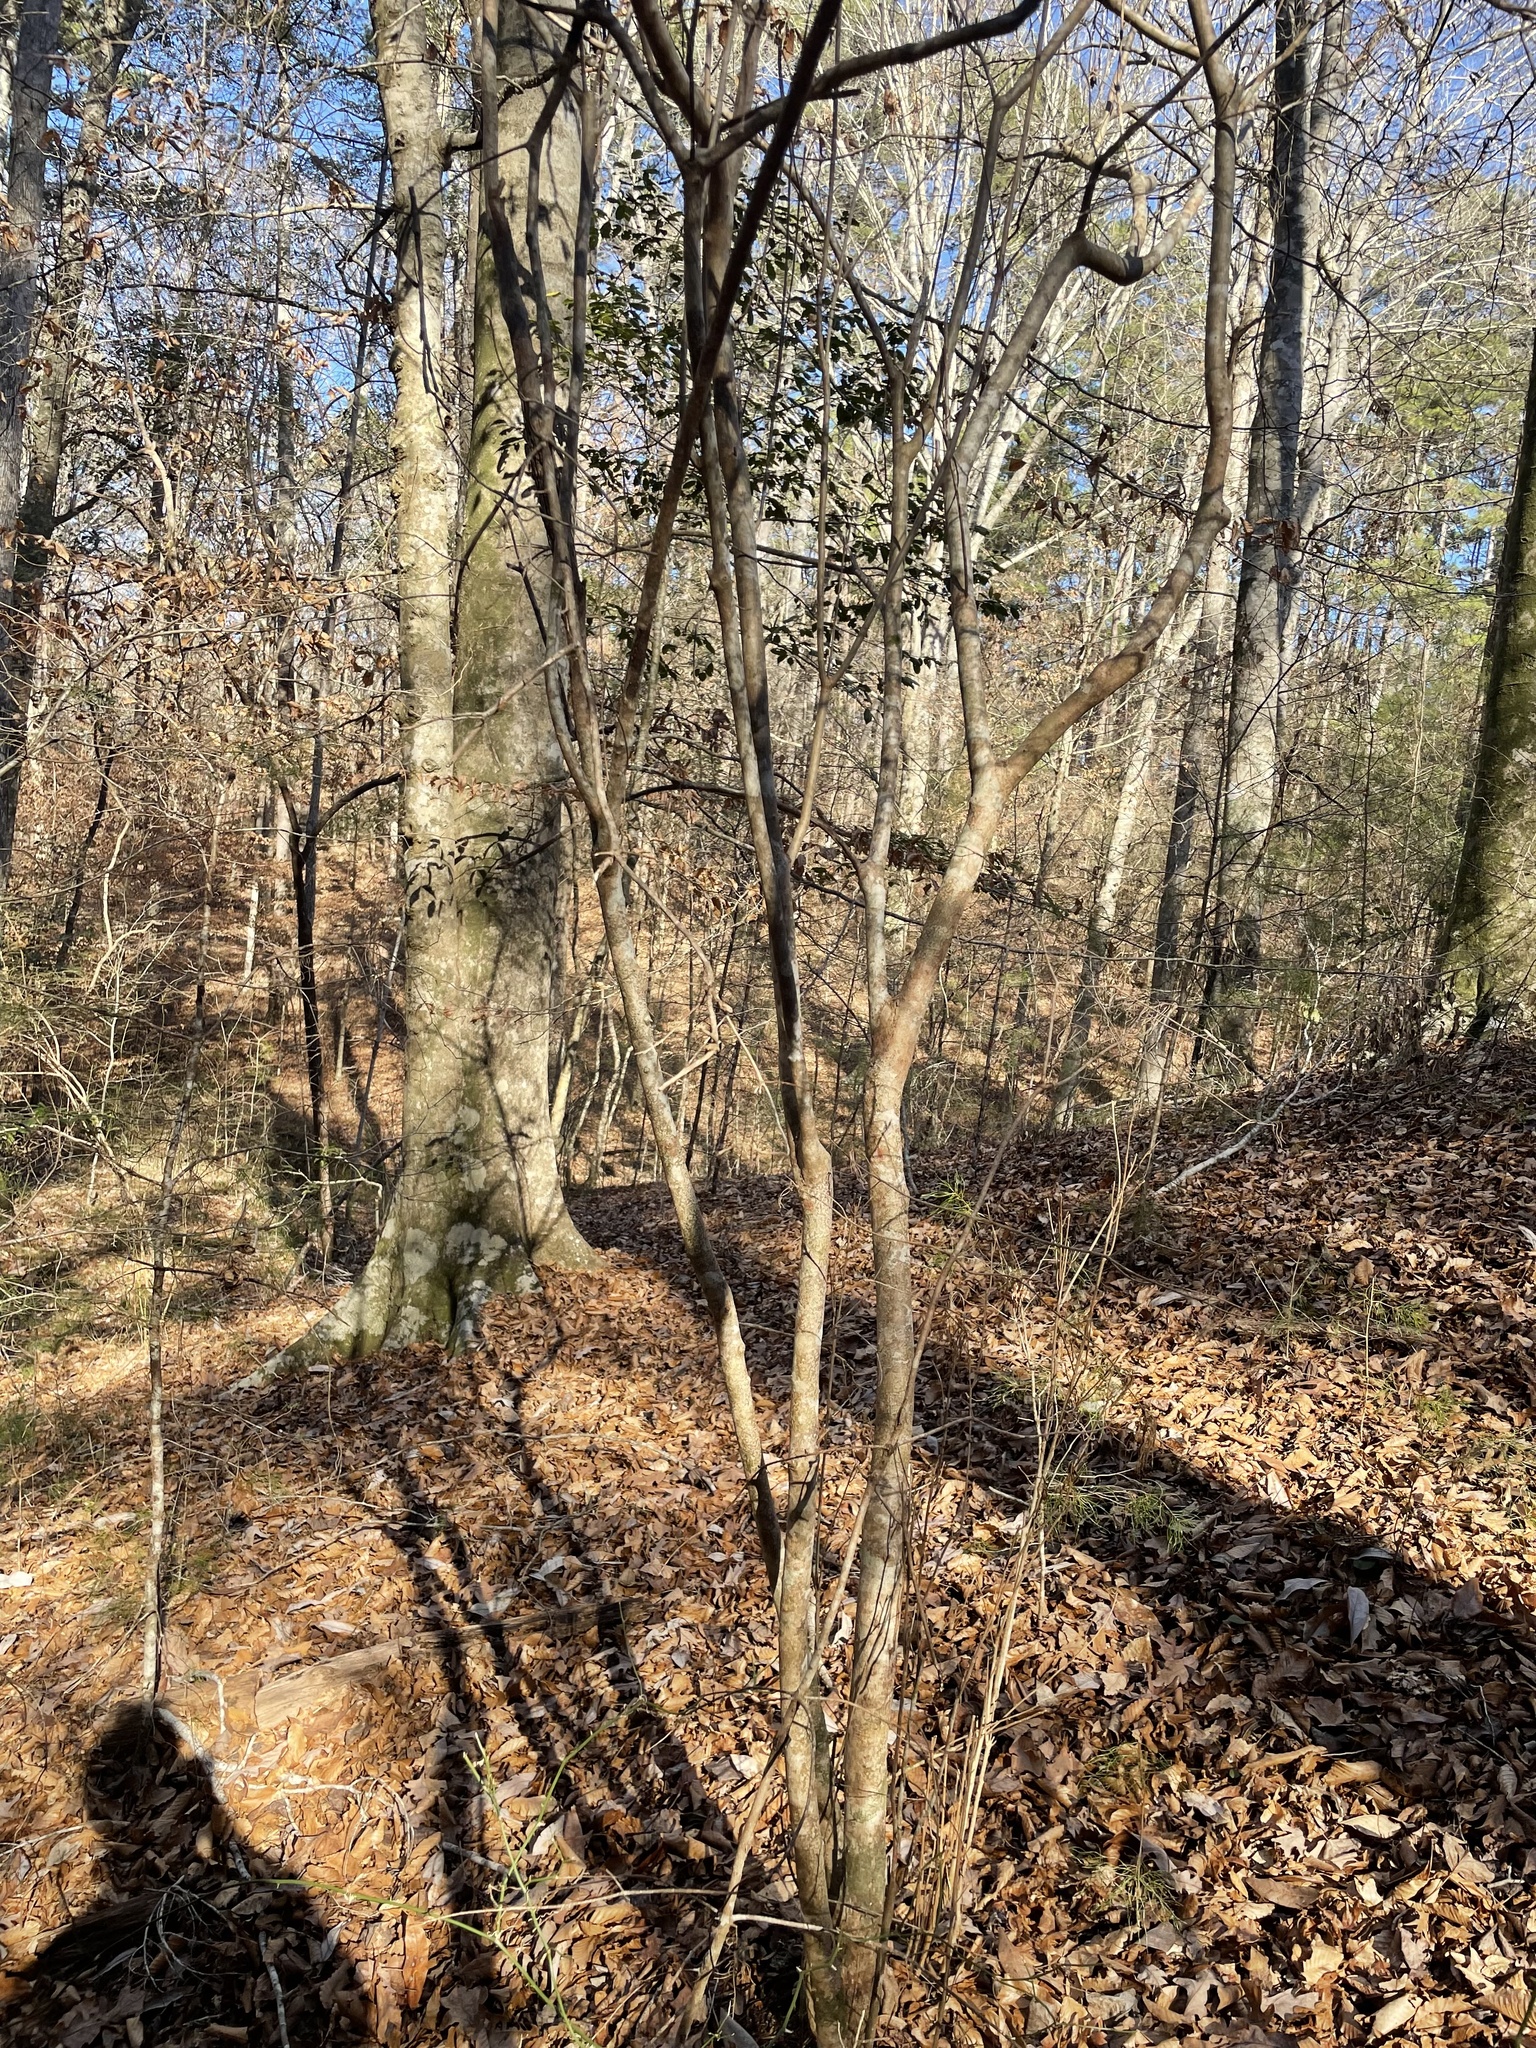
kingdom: Plantae
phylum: Tracheophyta
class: Magnoliopsida
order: Ericales
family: Theaceae
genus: Stewartia
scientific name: Stewartia malacodendron
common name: Virginia stewartia
